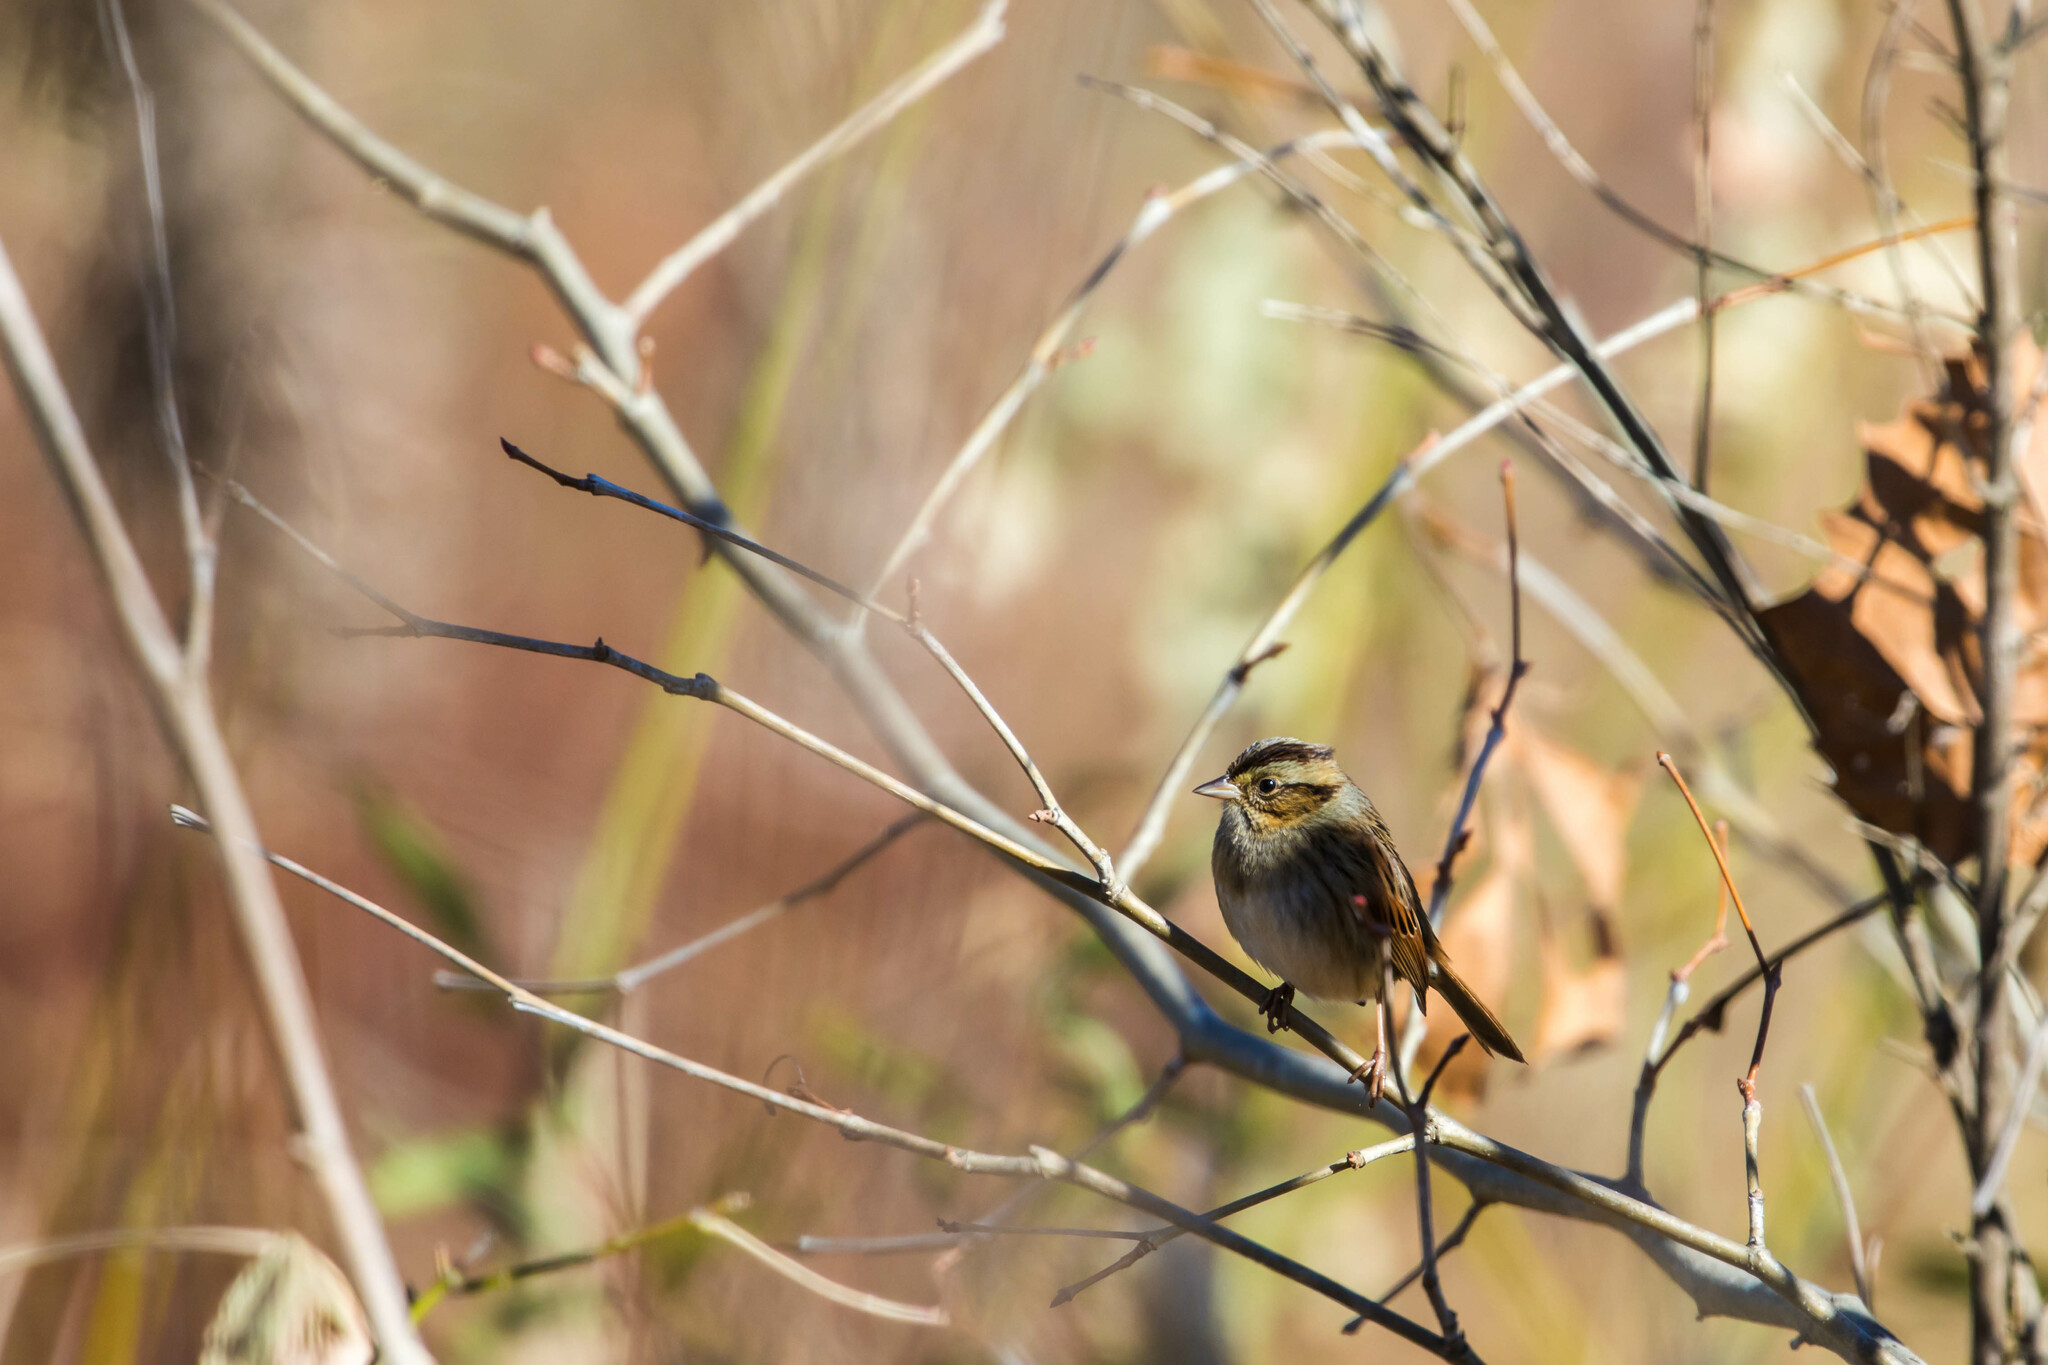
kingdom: Animalia
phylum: Chordata
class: Aves
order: Passeriformes
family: Passerellidae
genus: Melospiza
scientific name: Melospiza georgiana
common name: Swamp sparrow
